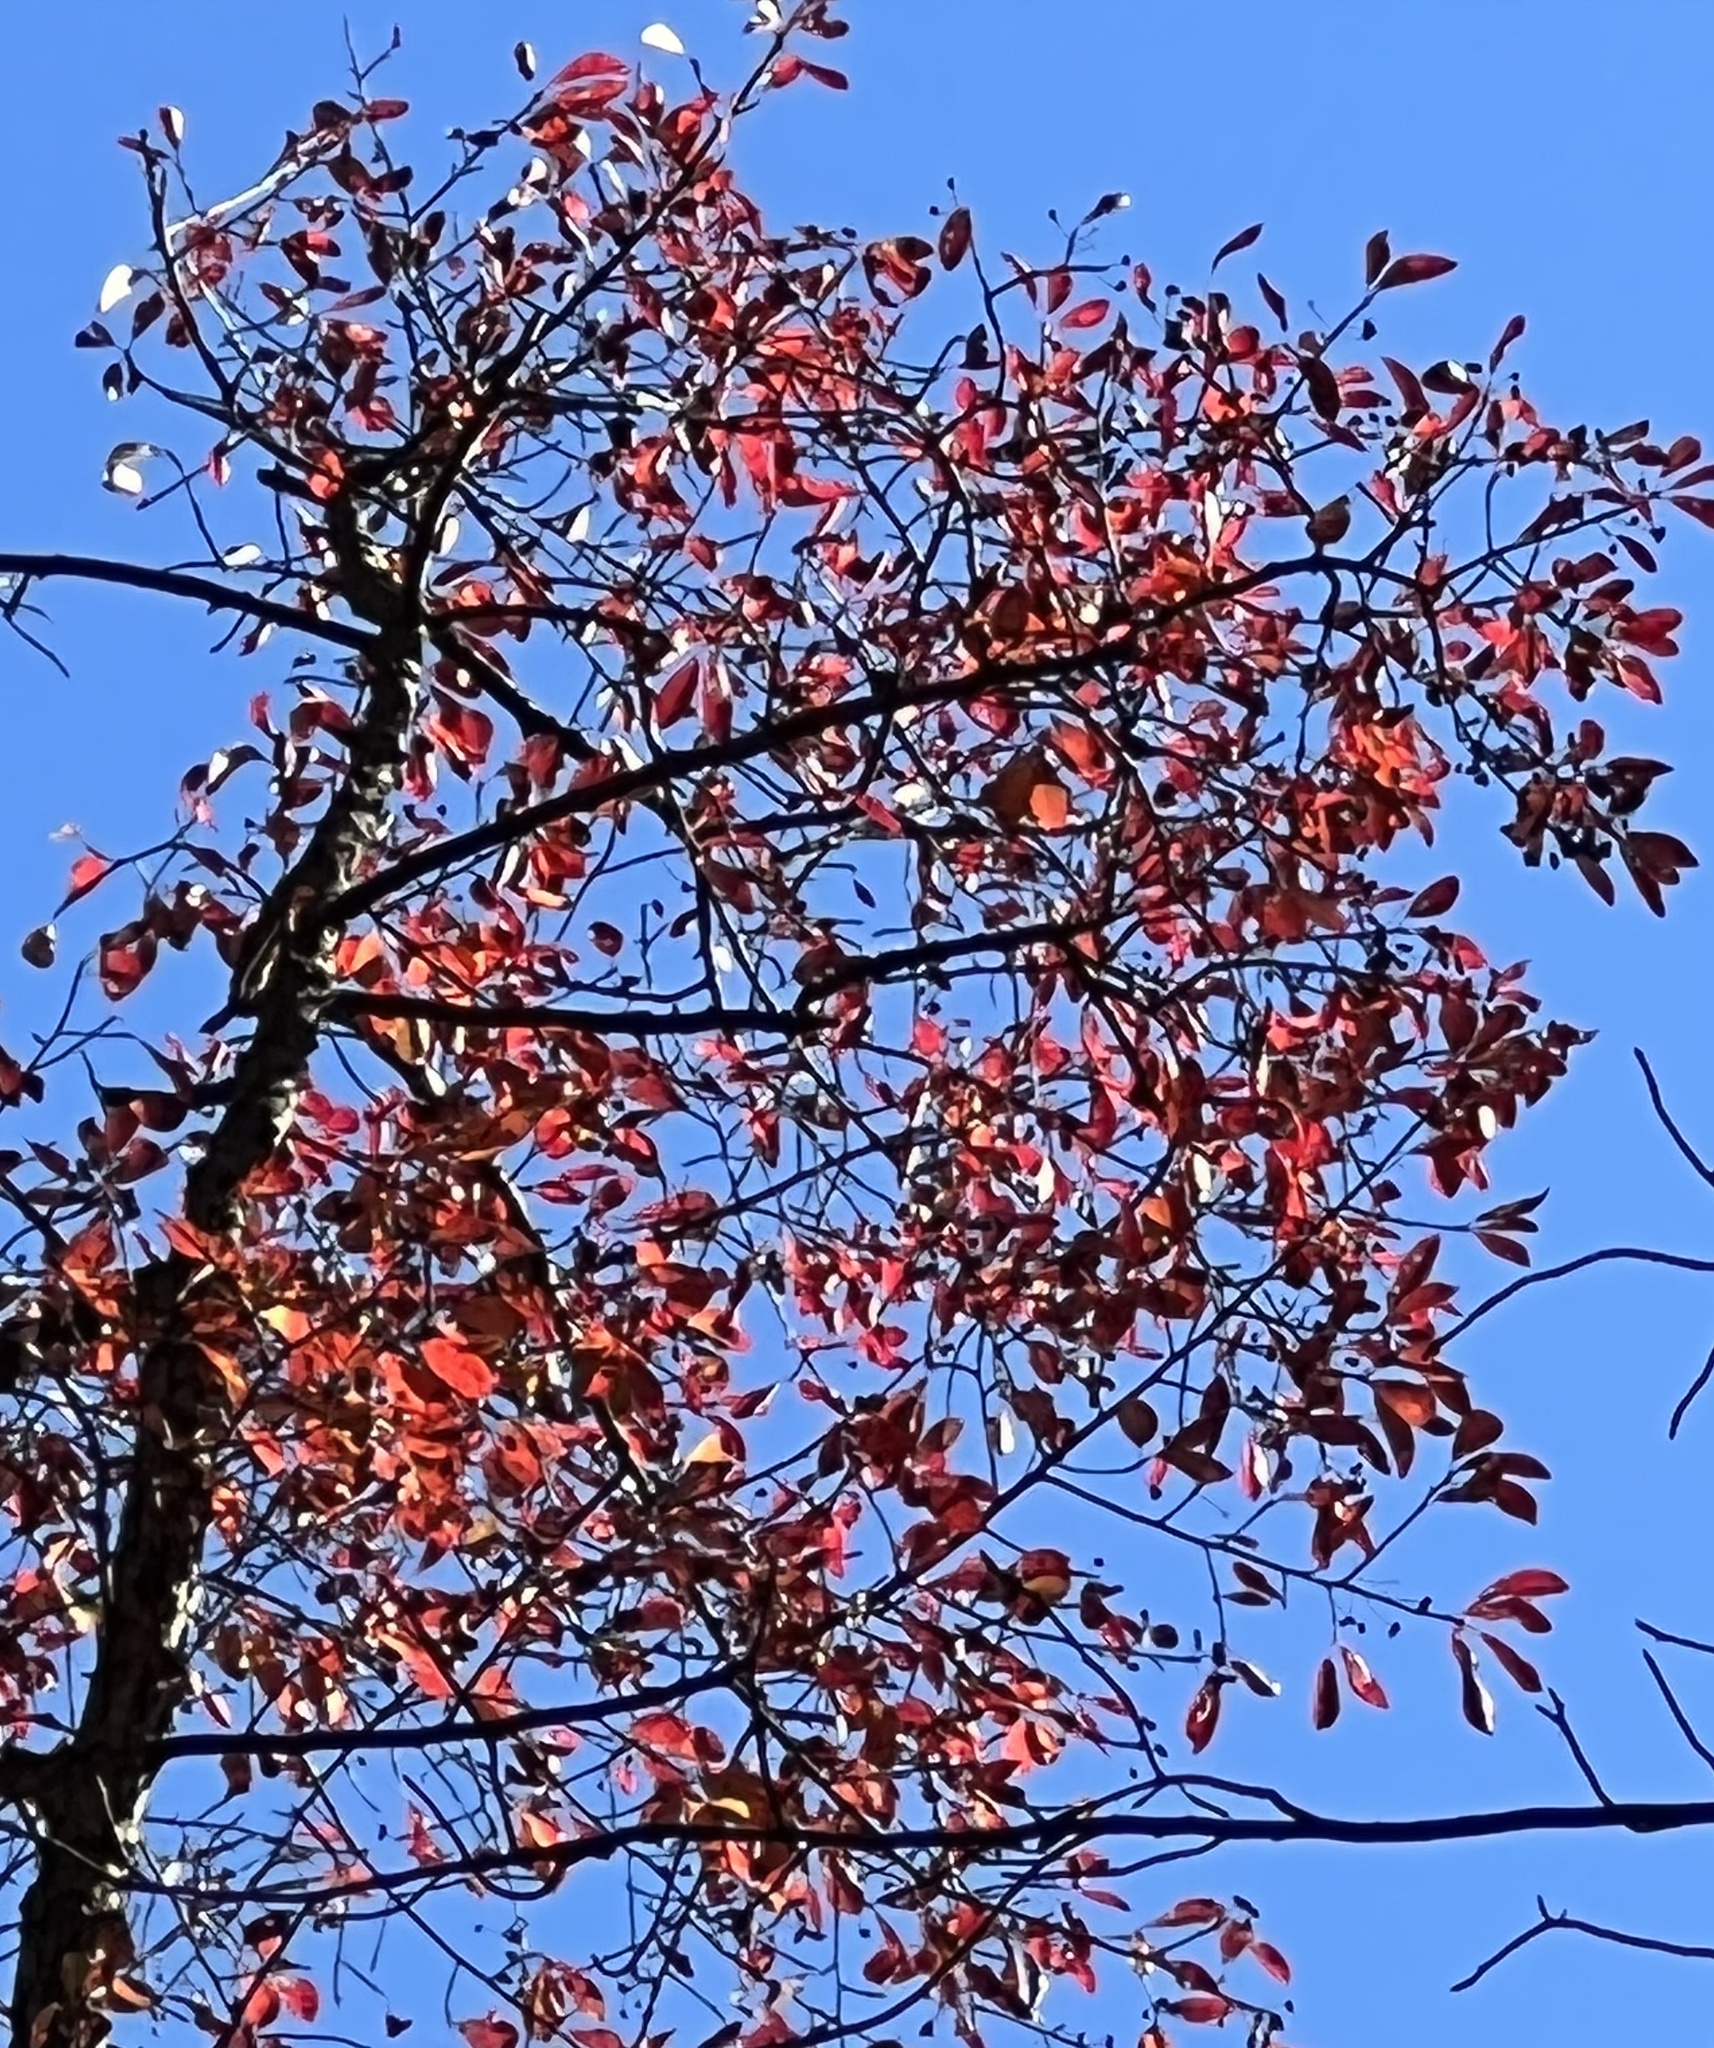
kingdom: Plantae
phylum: Tracheophyta
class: Magnoliopsida
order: Cornales
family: Nyssaceae
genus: Nyssa
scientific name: Nyssa sylvatica
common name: Black tupelo
